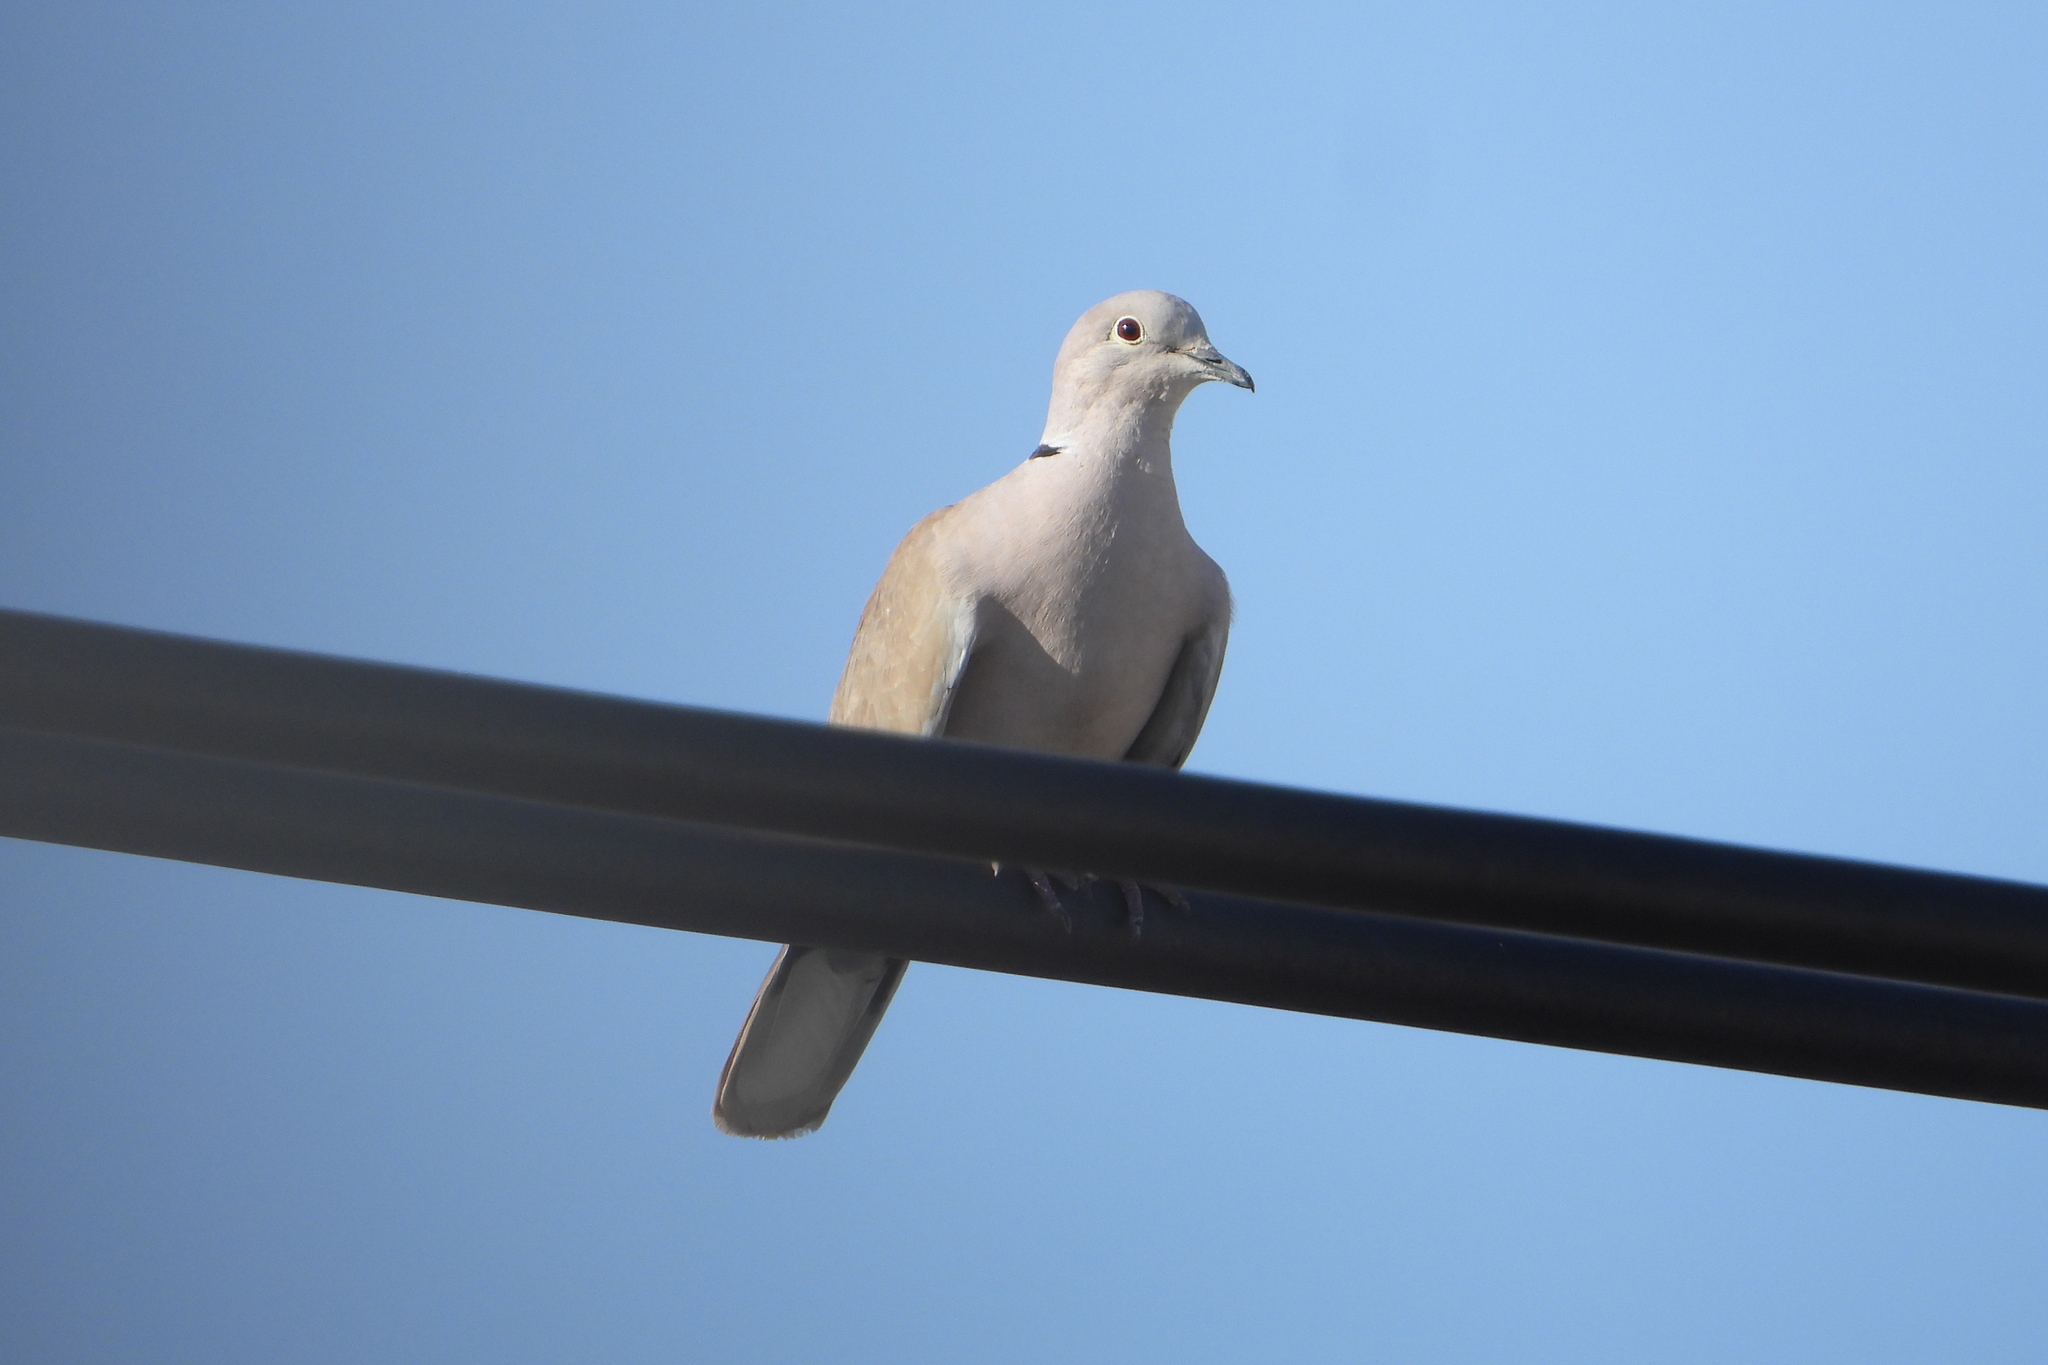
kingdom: Animalia
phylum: Chordata
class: Aves
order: Columbiformes
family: Columbidae
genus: Streptopelia
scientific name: Streptopelia decaocto
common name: Eurasian collared dove
